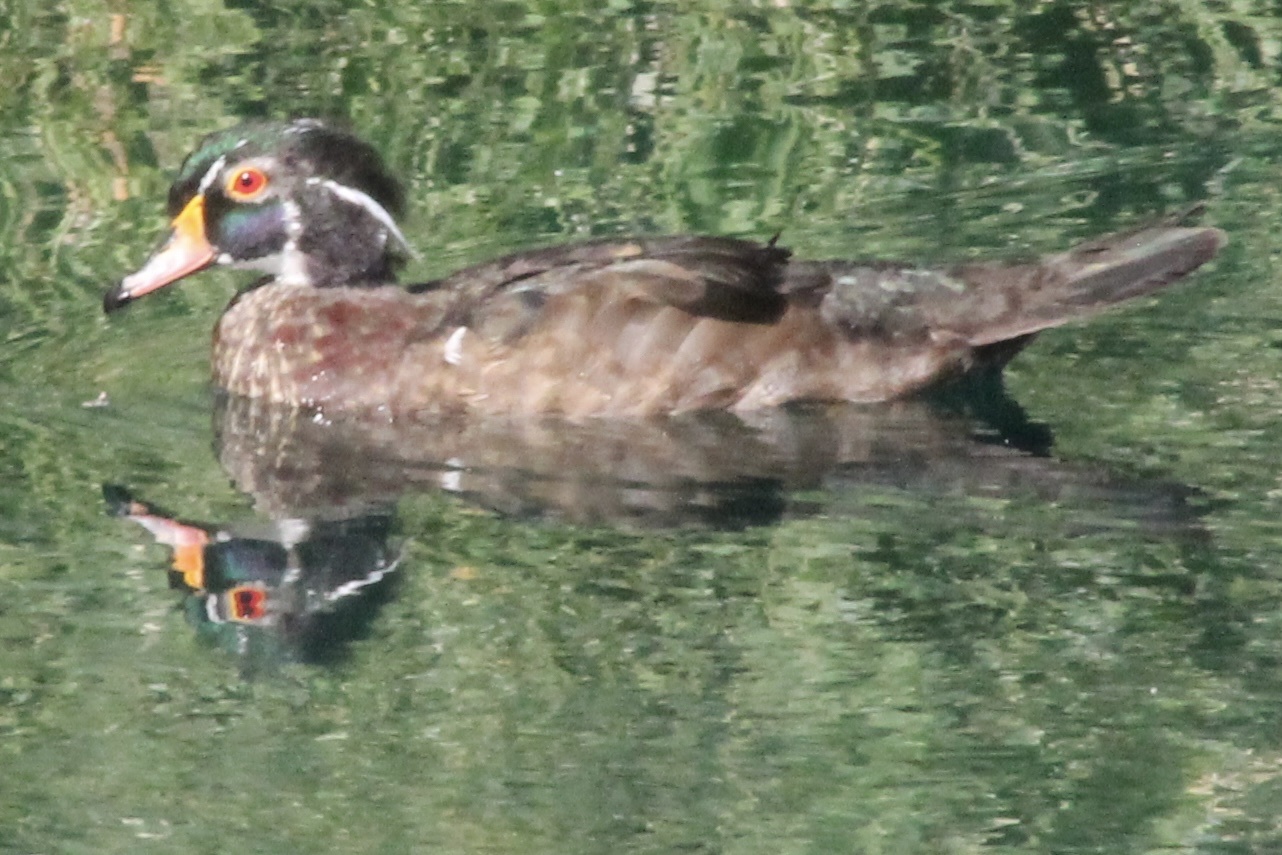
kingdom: Animalia
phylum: Chordata
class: Aves
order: Anseriformes
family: Anatidae
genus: Aix
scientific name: Aix sponsa
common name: Wood duck
